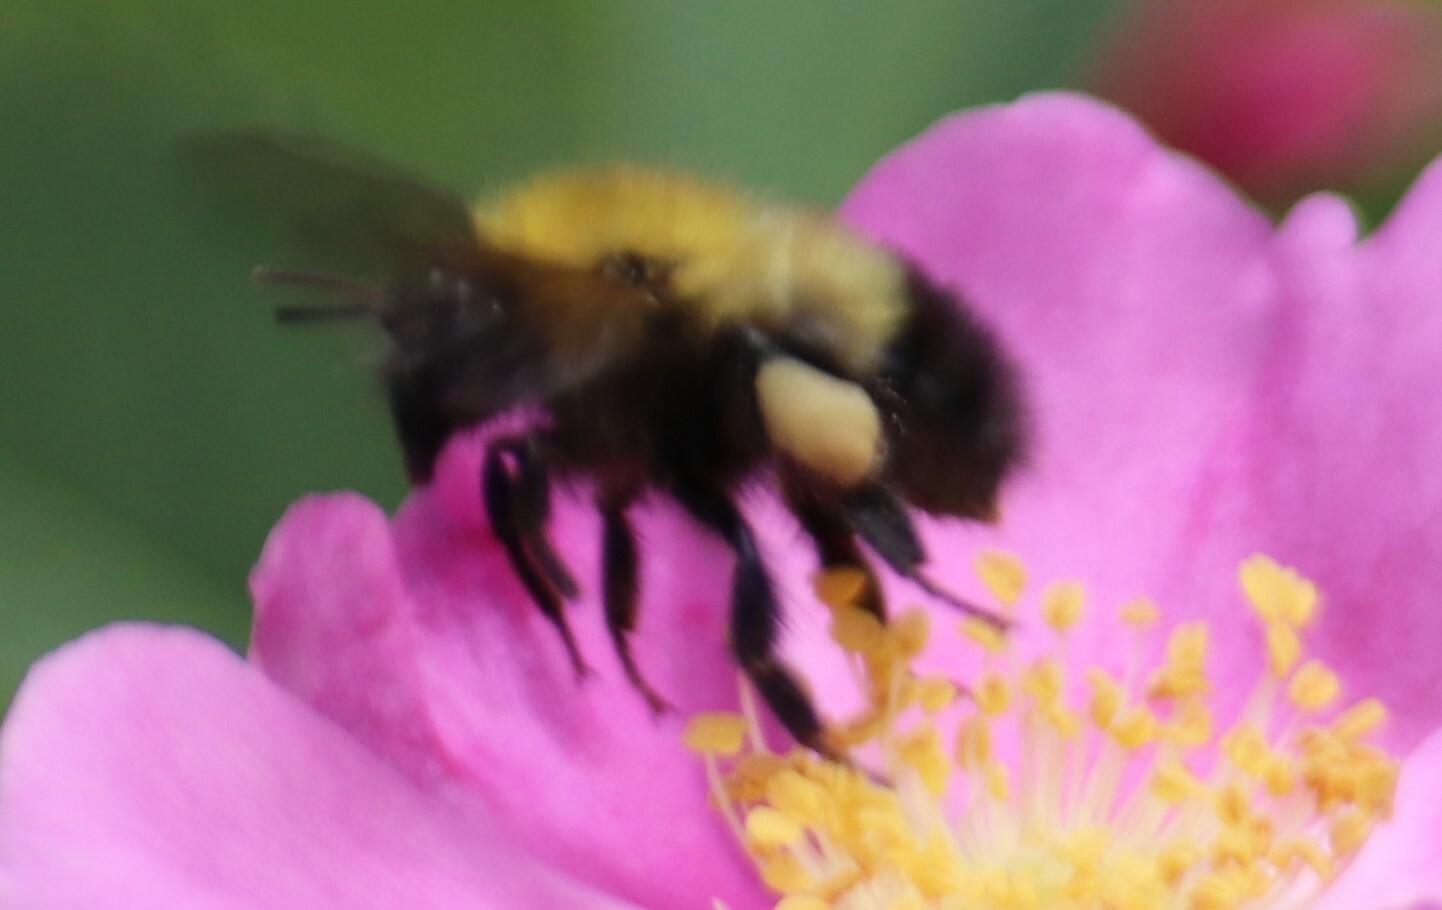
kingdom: Animalia
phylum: Arthropoda
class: Insecta
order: Hymenoptera
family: Apidae
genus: Bombus
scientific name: Bombus perplexus
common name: Confusing bumble bee
